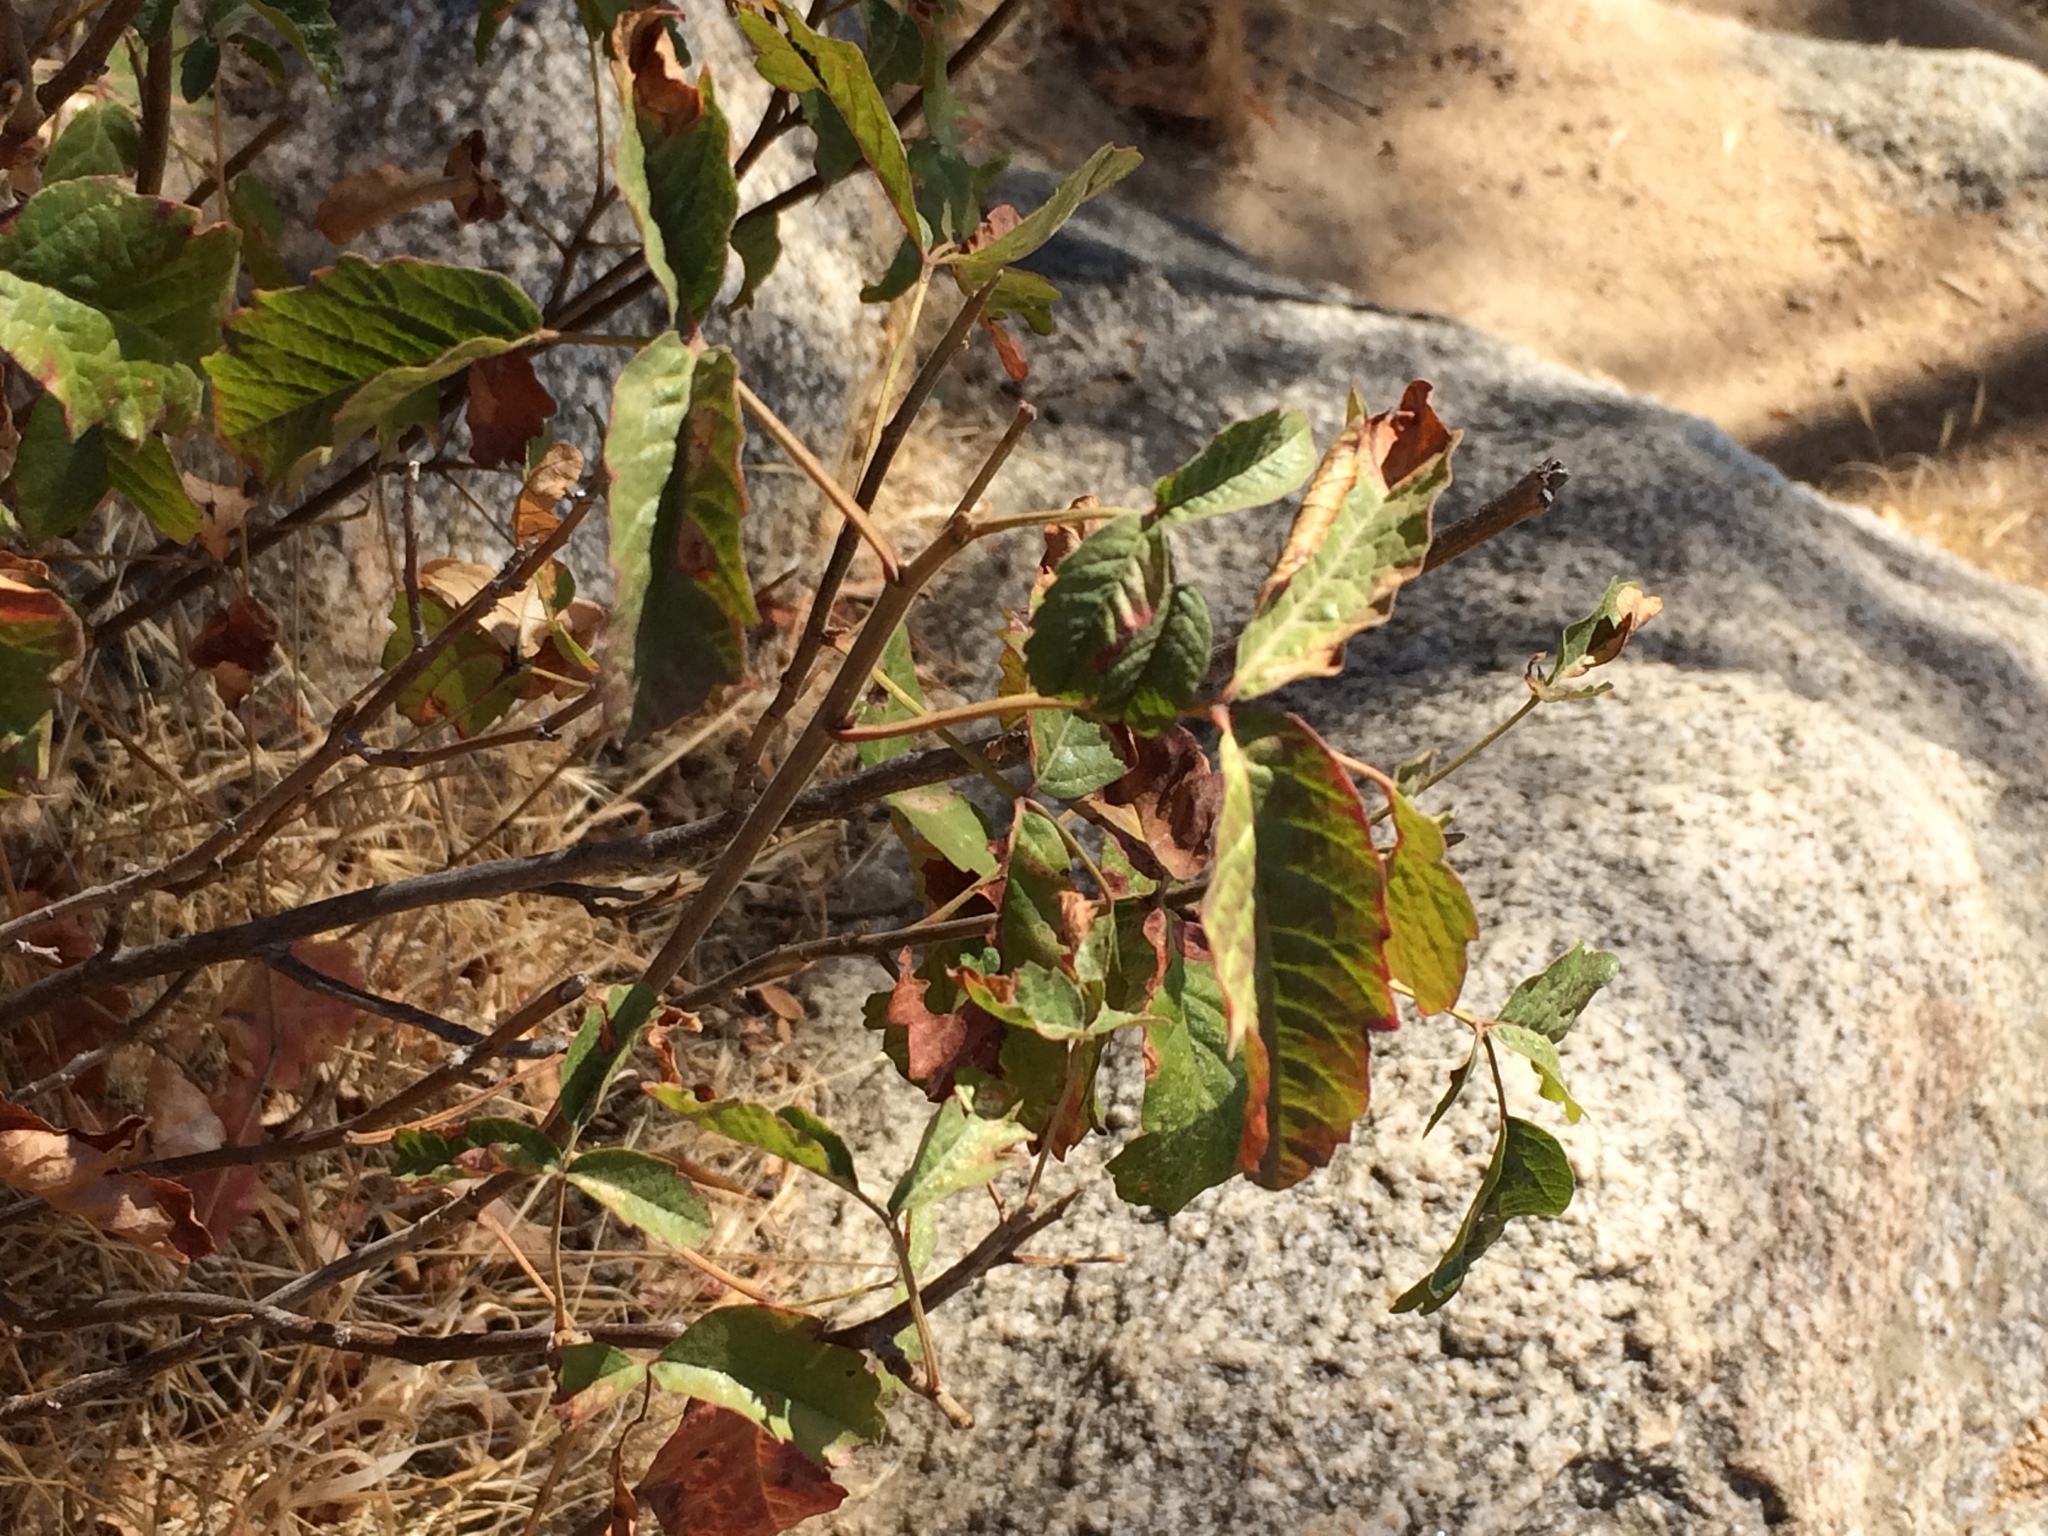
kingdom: Plantae
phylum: Tracheophyta
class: Magnoliopsida
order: Sapindales
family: Anacardiaceae
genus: Toxicodendron
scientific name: Toxicodendron diversilobum
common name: Pacific poison-oak
